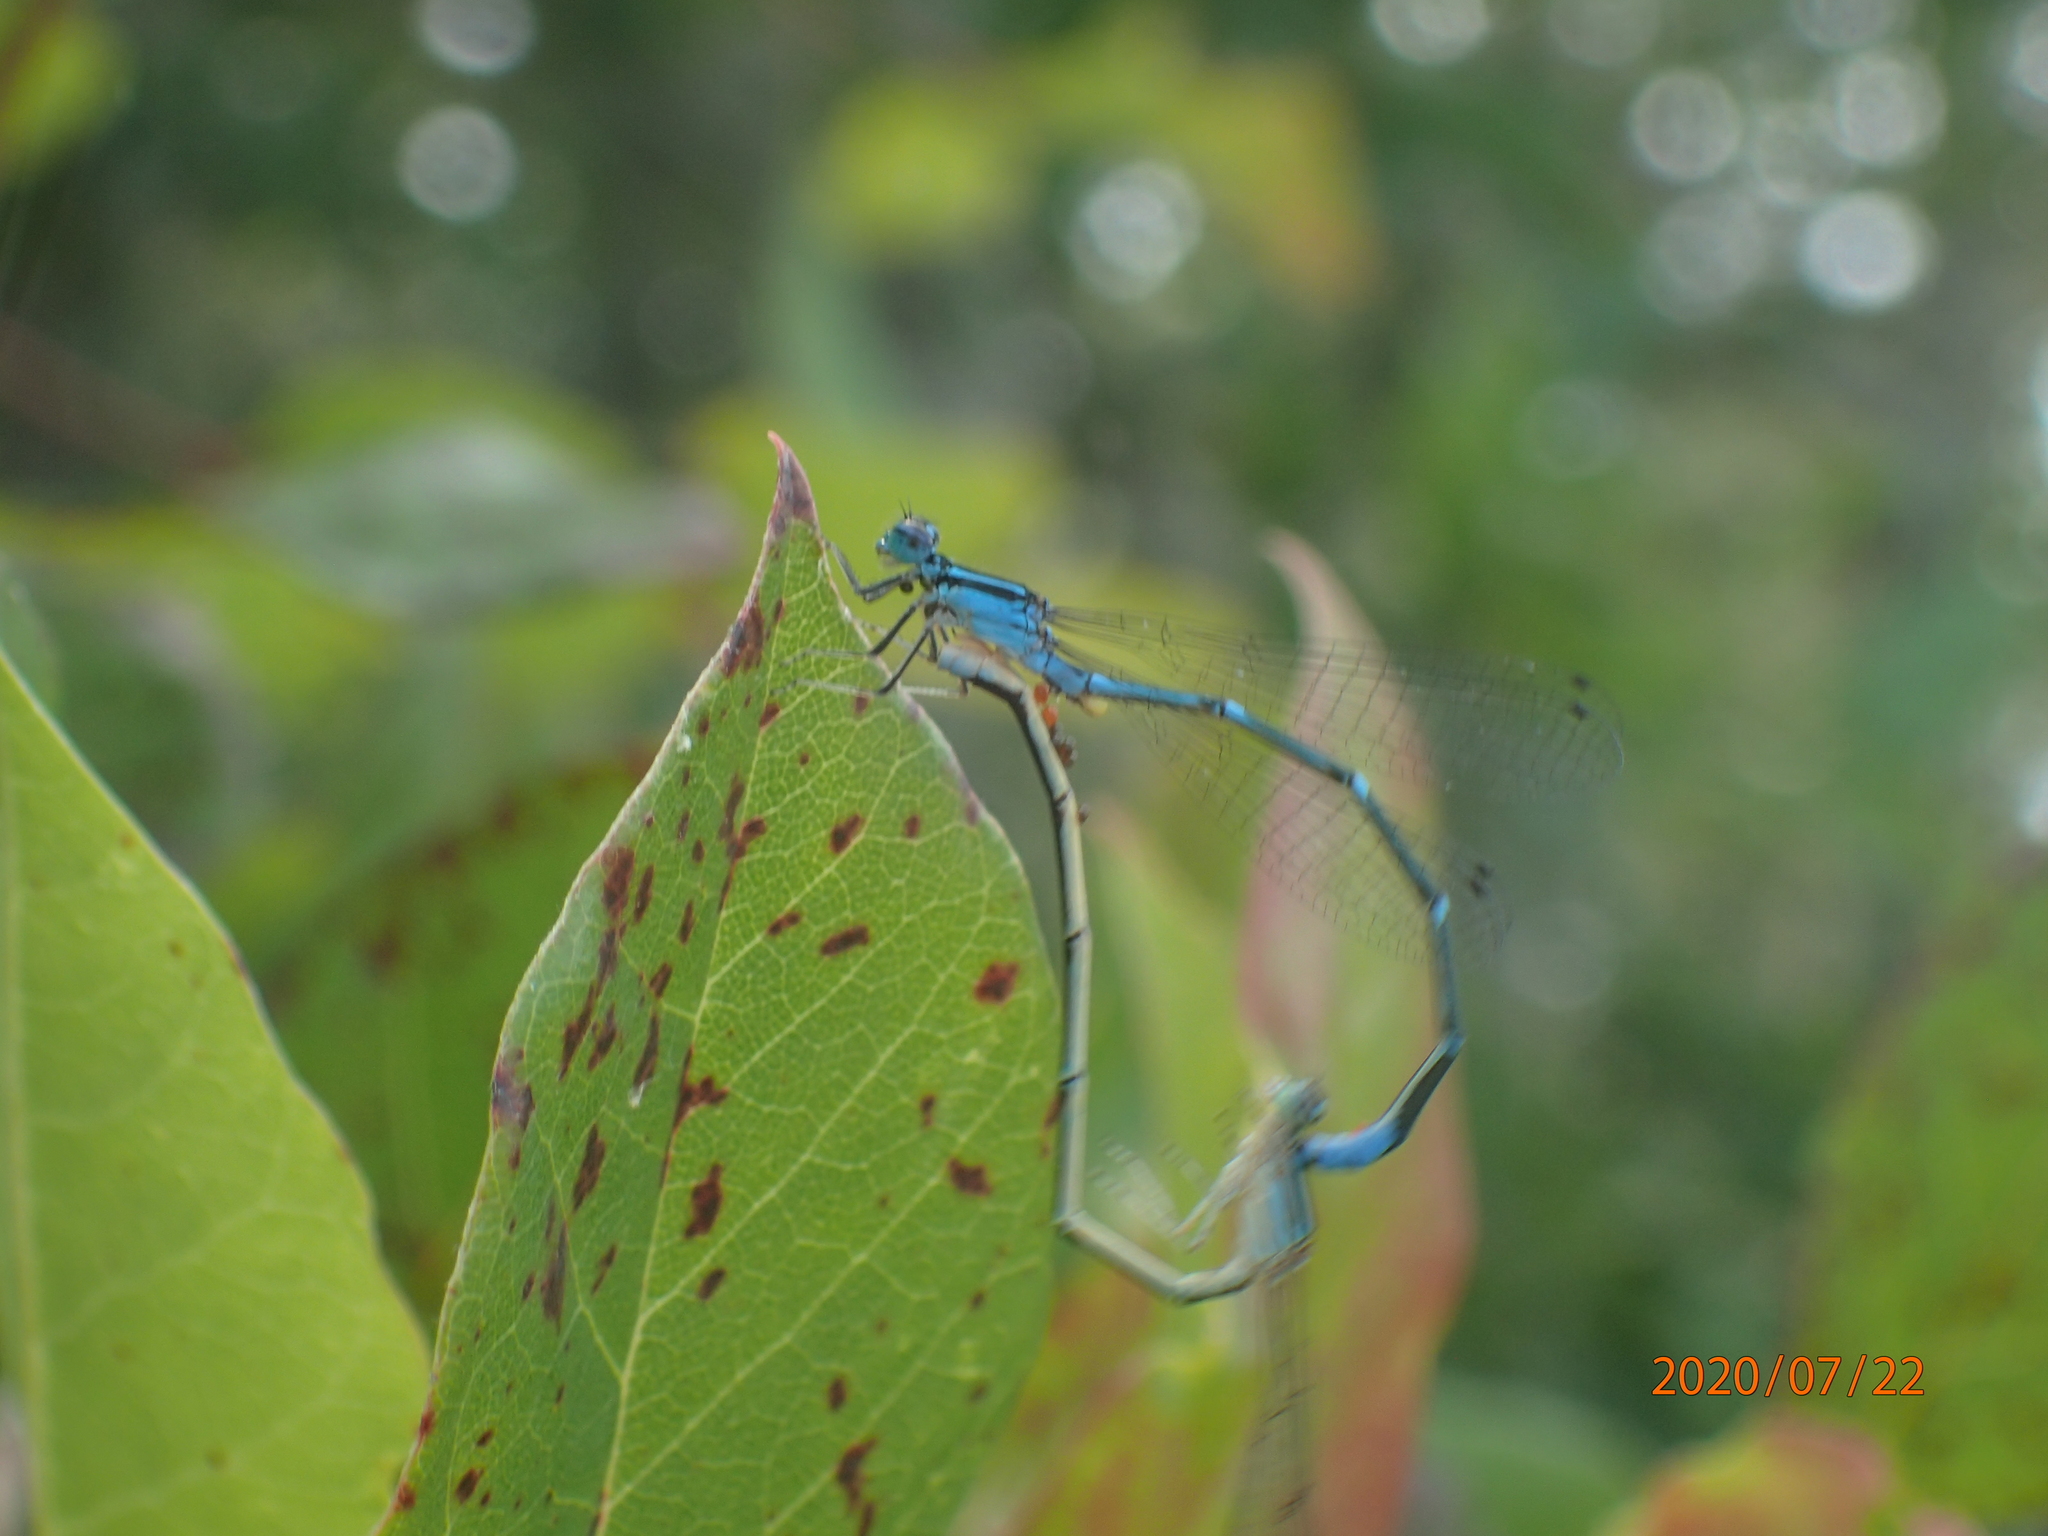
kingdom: Animalia
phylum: Arthropoda
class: Insecta
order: Odonata
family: Coenagrionidae
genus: Enallagma
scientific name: Enallagma exsulans
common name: Stream bluet
